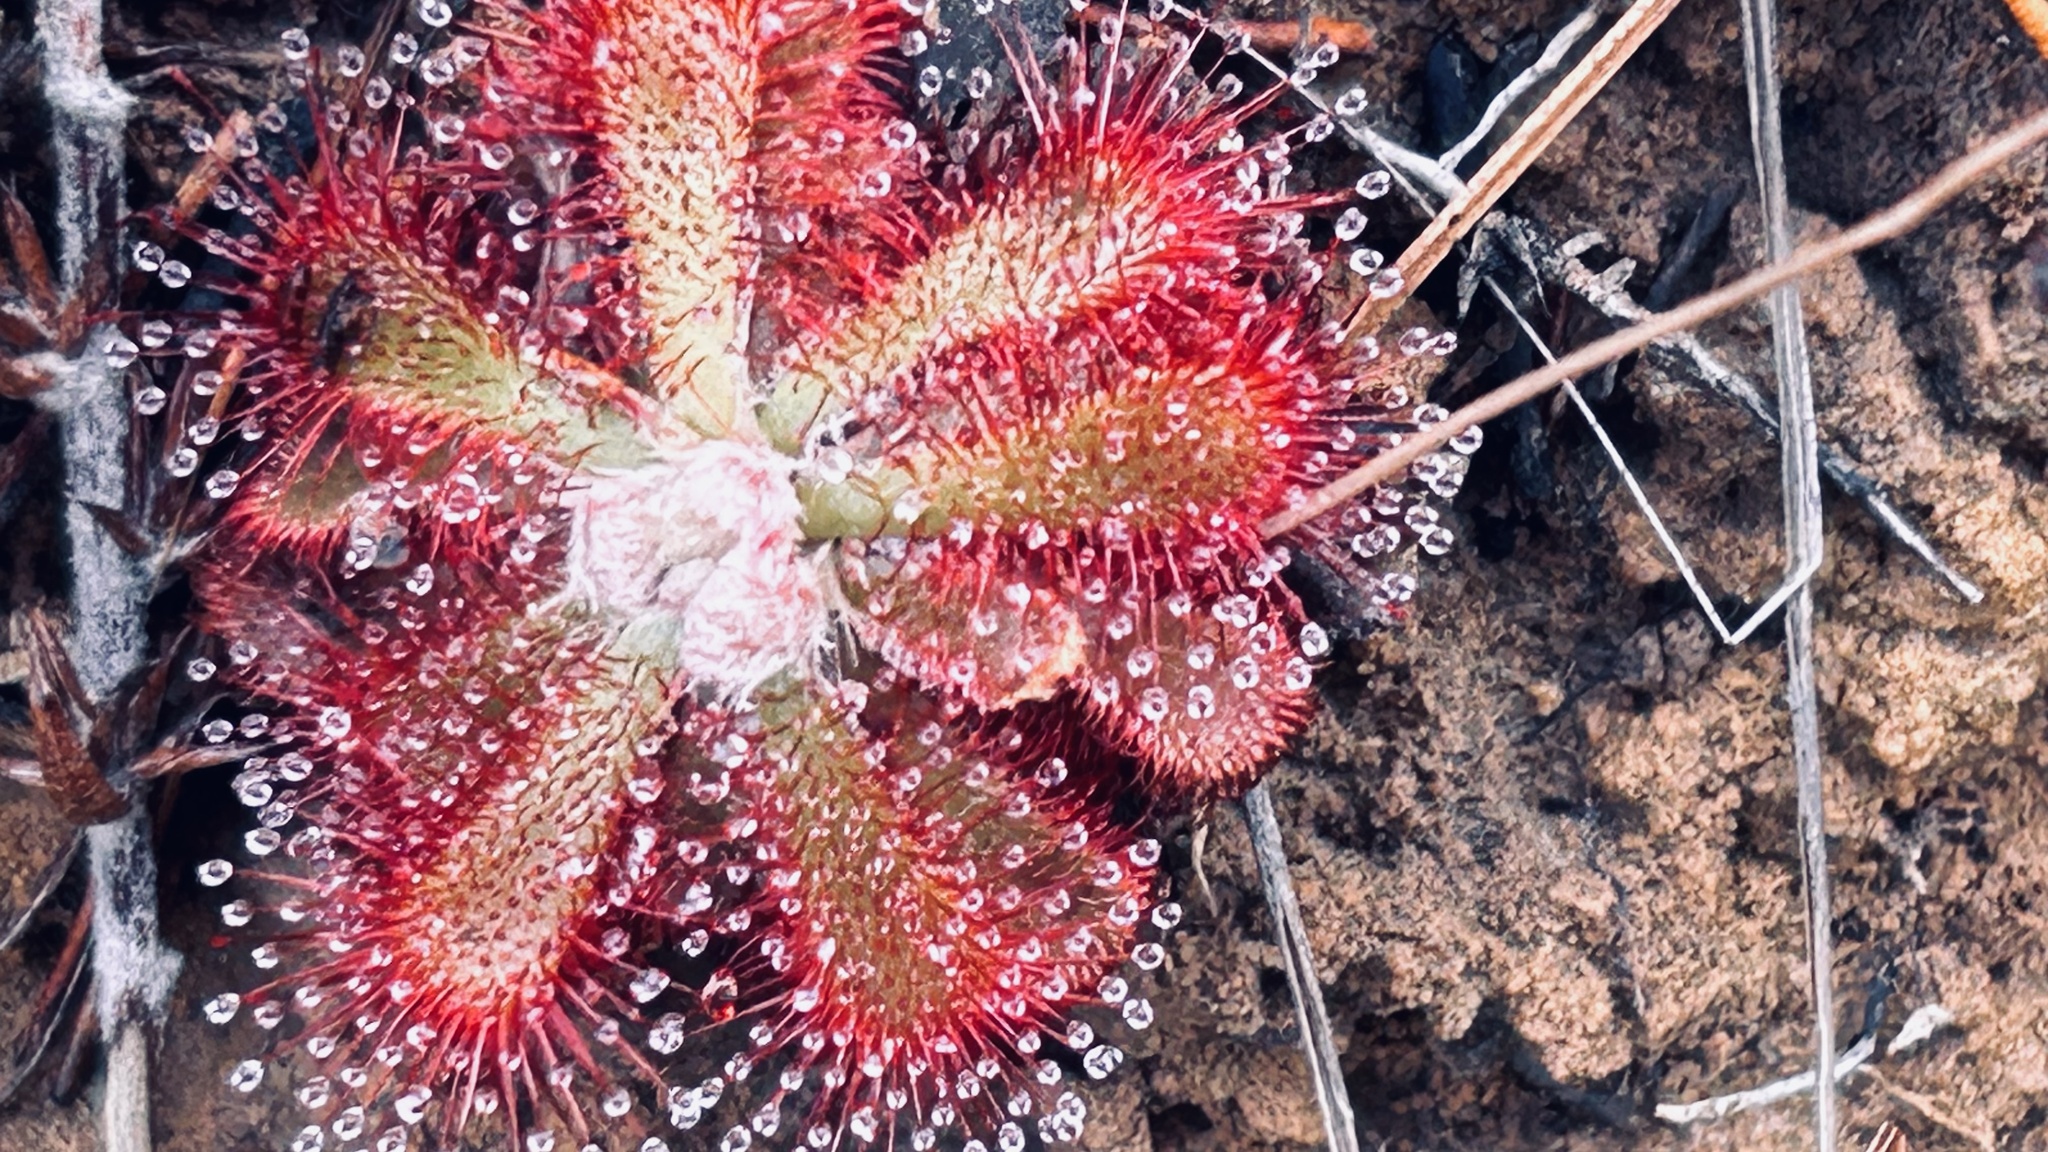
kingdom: Plantae
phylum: Tracheophyta
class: Magnoliopsida
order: Caryophyllales
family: Droseraceae
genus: Drosera
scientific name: Drosera cistiflora
